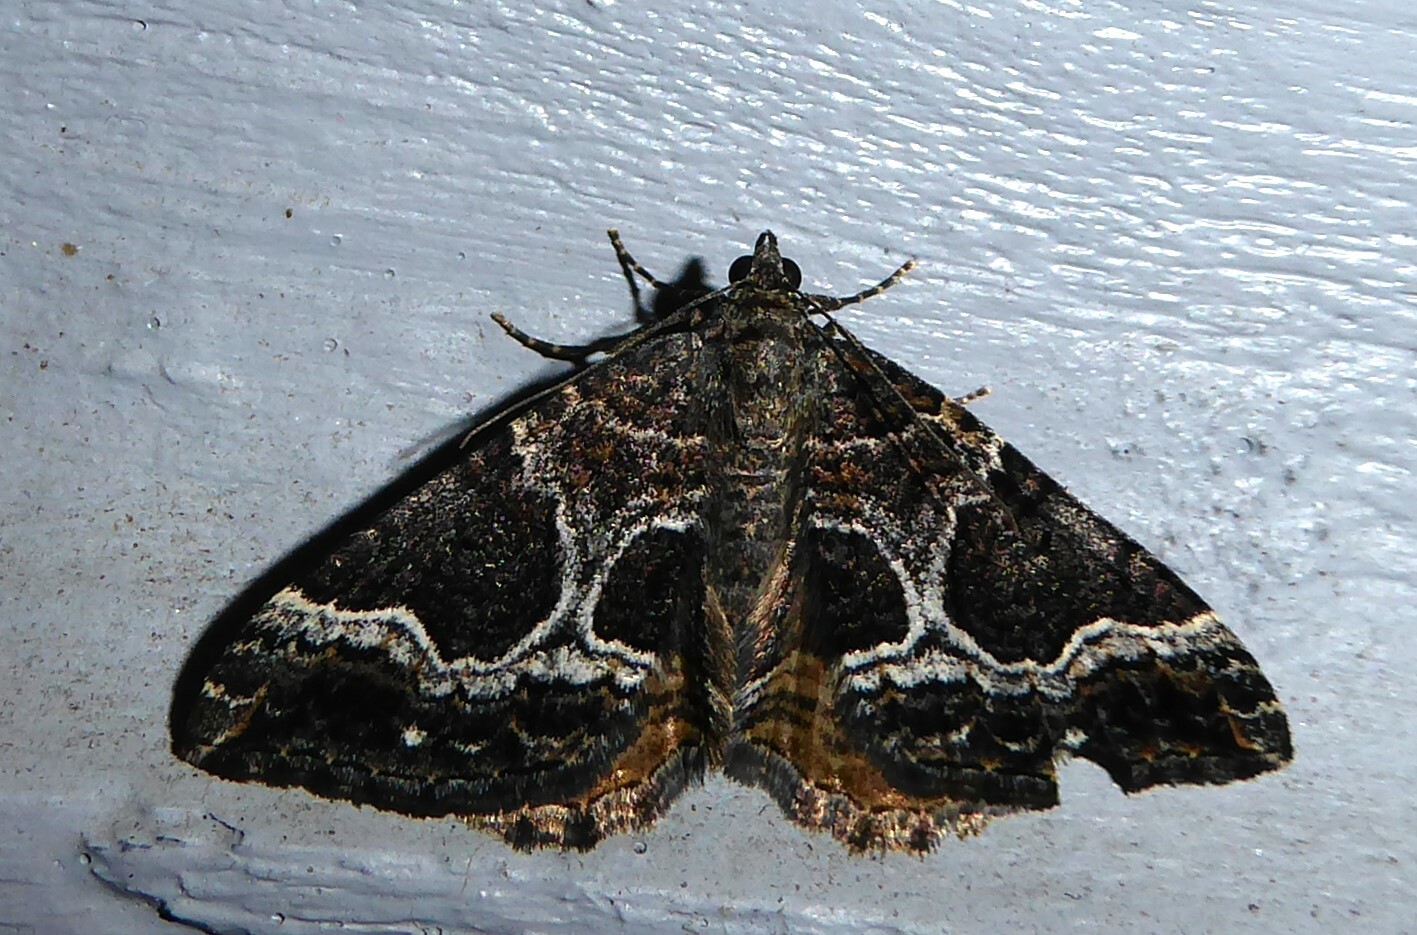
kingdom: Animalia
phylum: Arthropoda
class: Insecta
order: Lepidoptera
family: Geometridae
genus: Hydriomena
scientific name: Hydriomena deltoidata
